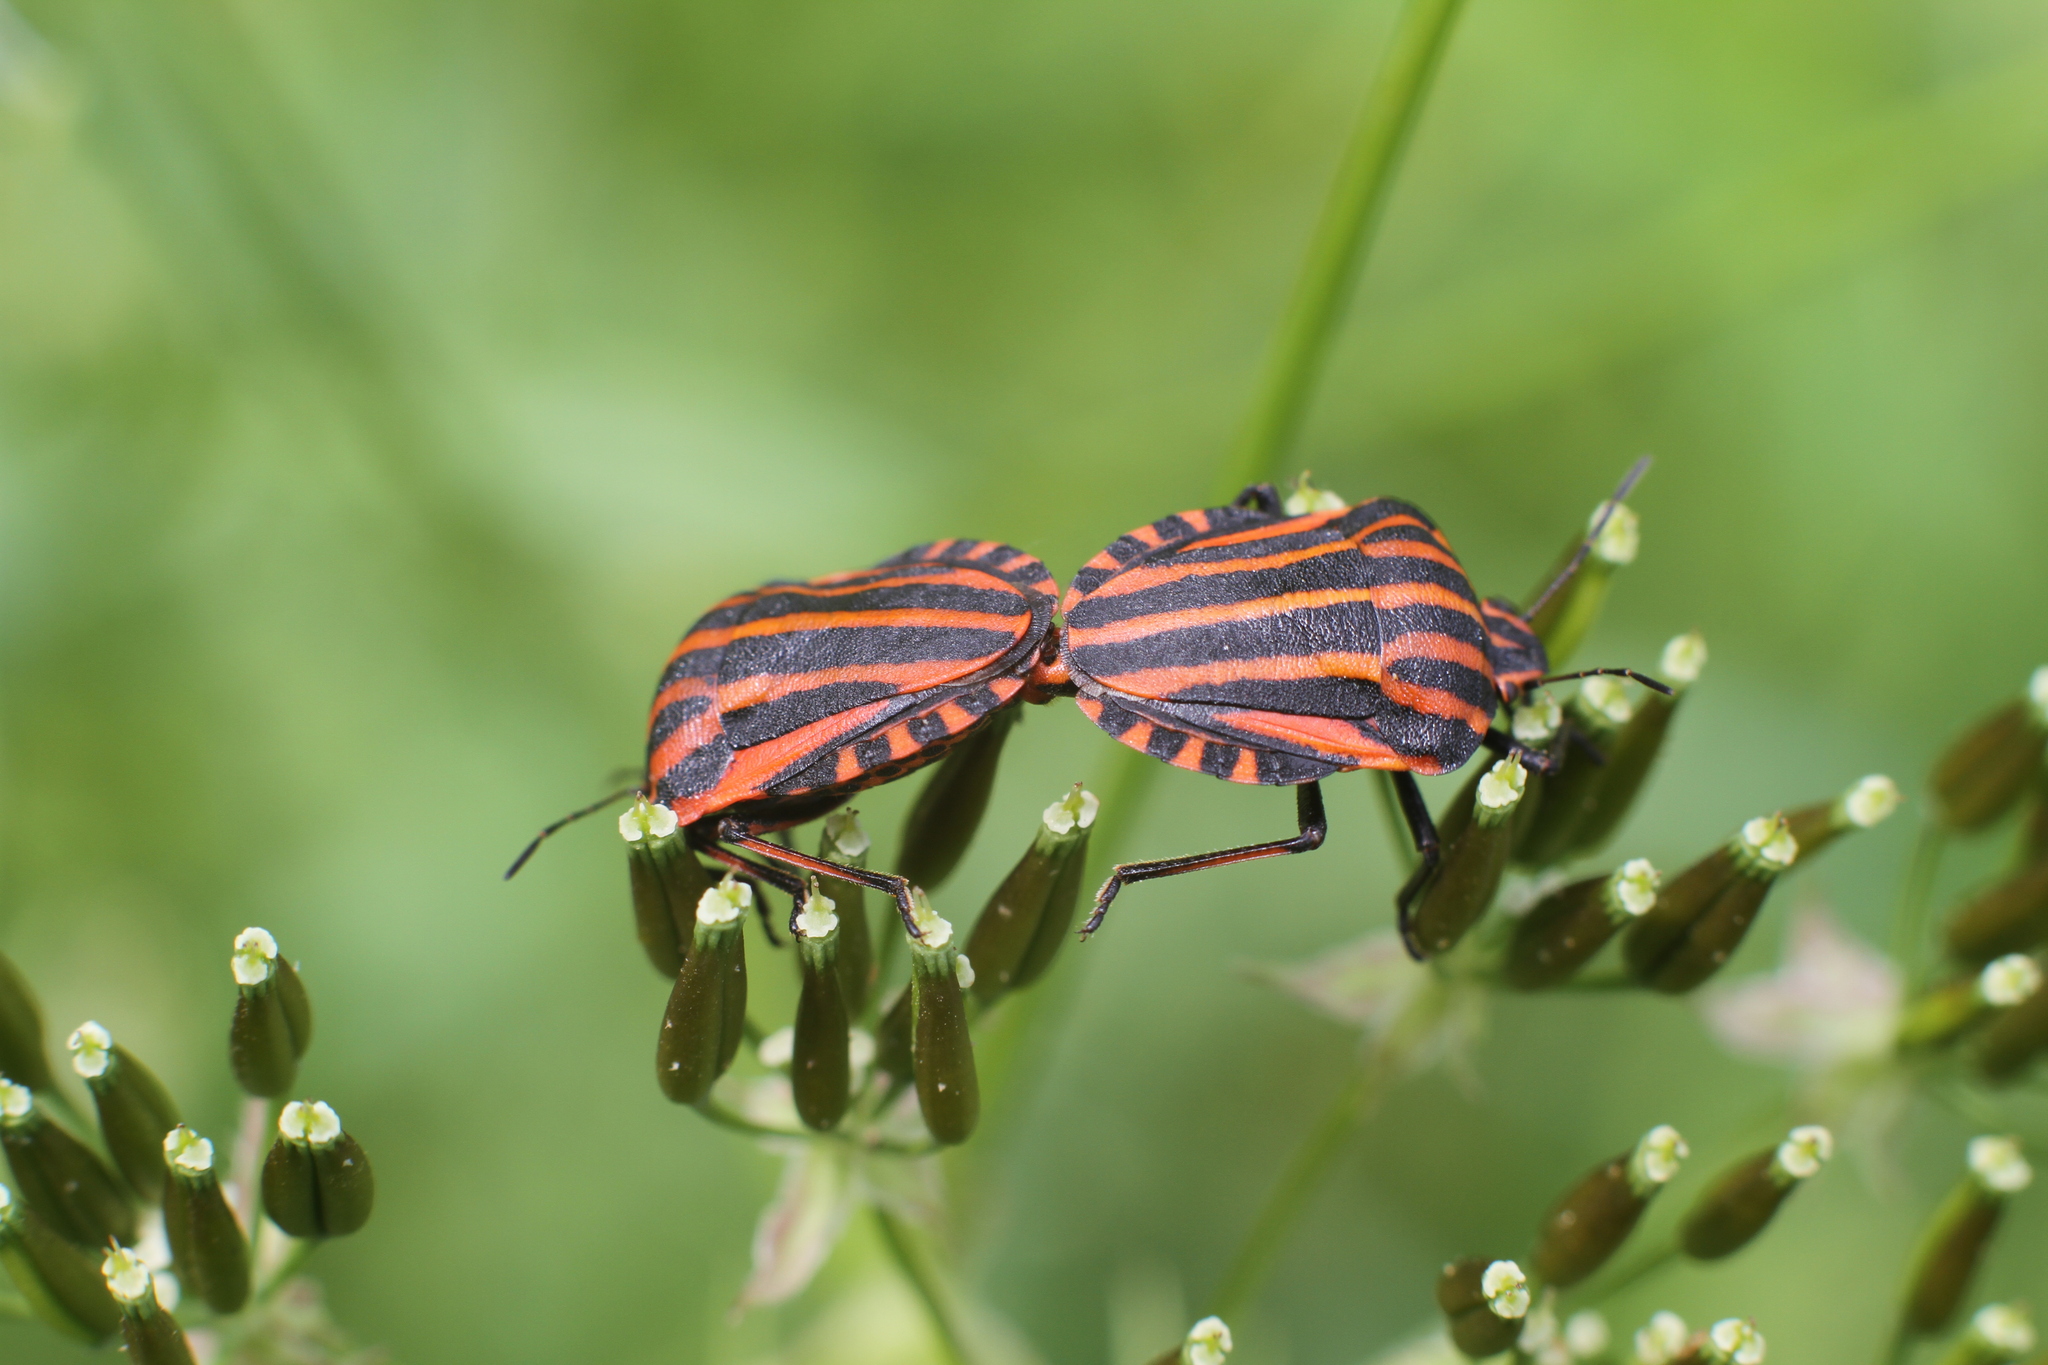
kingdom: Animalia
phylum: Arthropoda
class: Insecta
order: Hemiptera
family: Pentatomidae
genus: Graphosoma
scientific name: Graphosoma italicum
